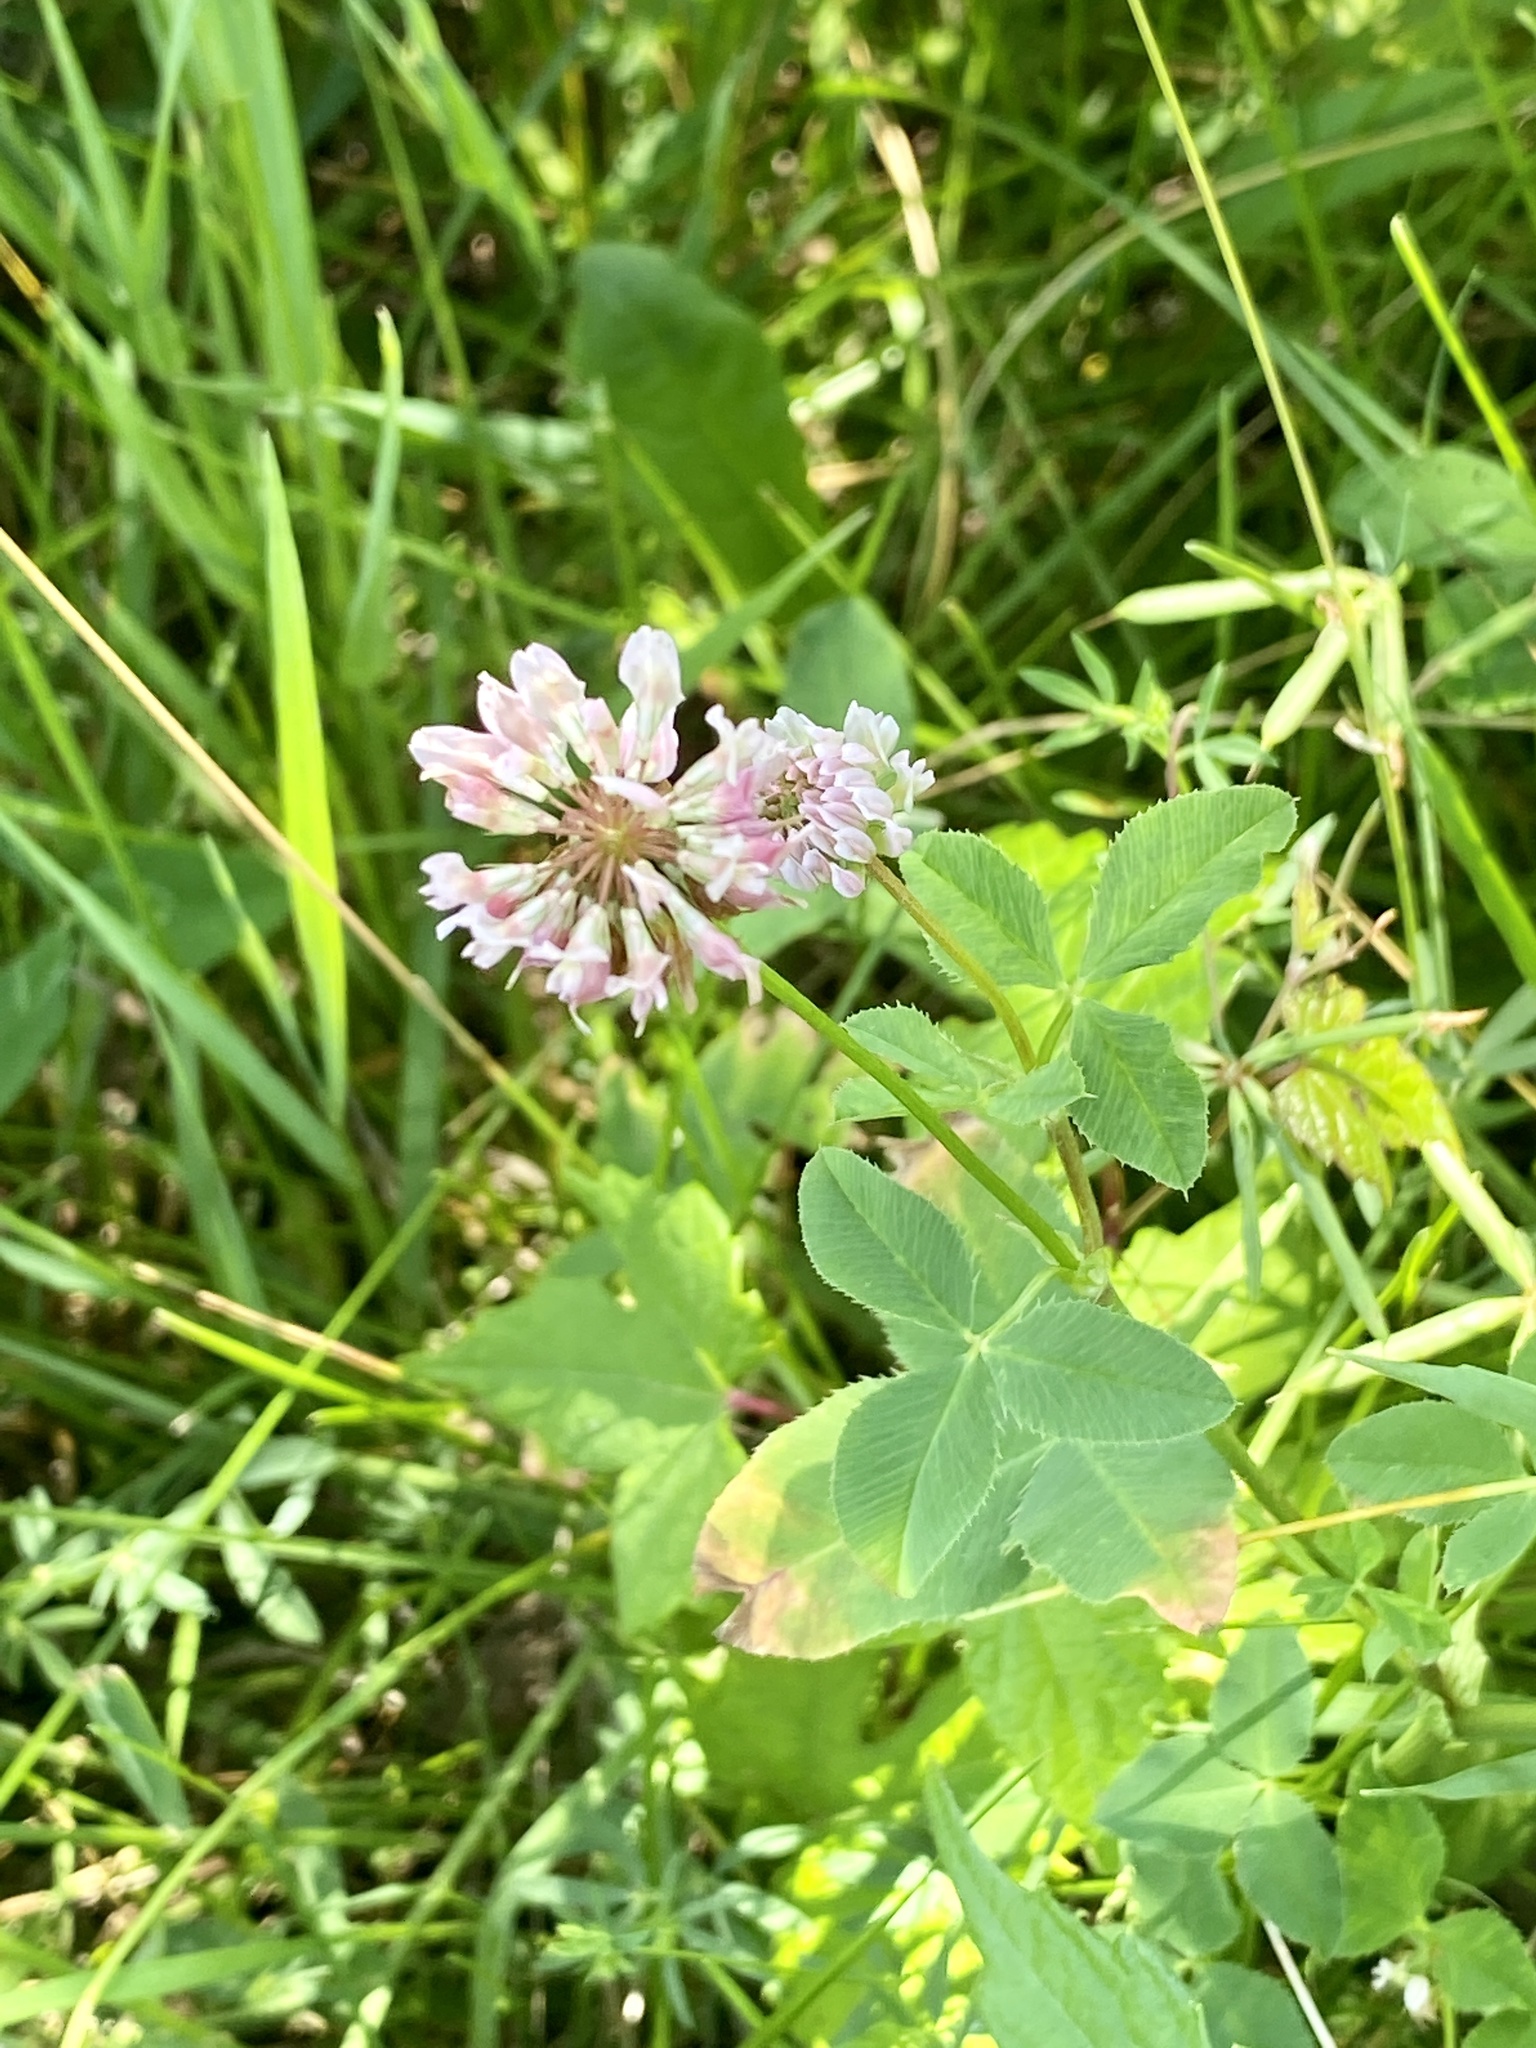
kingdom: Plantae
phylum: Tracheophyta
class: Magnoliopsida
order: Fabales
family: Fabaceae
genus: Trifolium
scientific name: Trifolium hybridum
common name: Alsike clover
